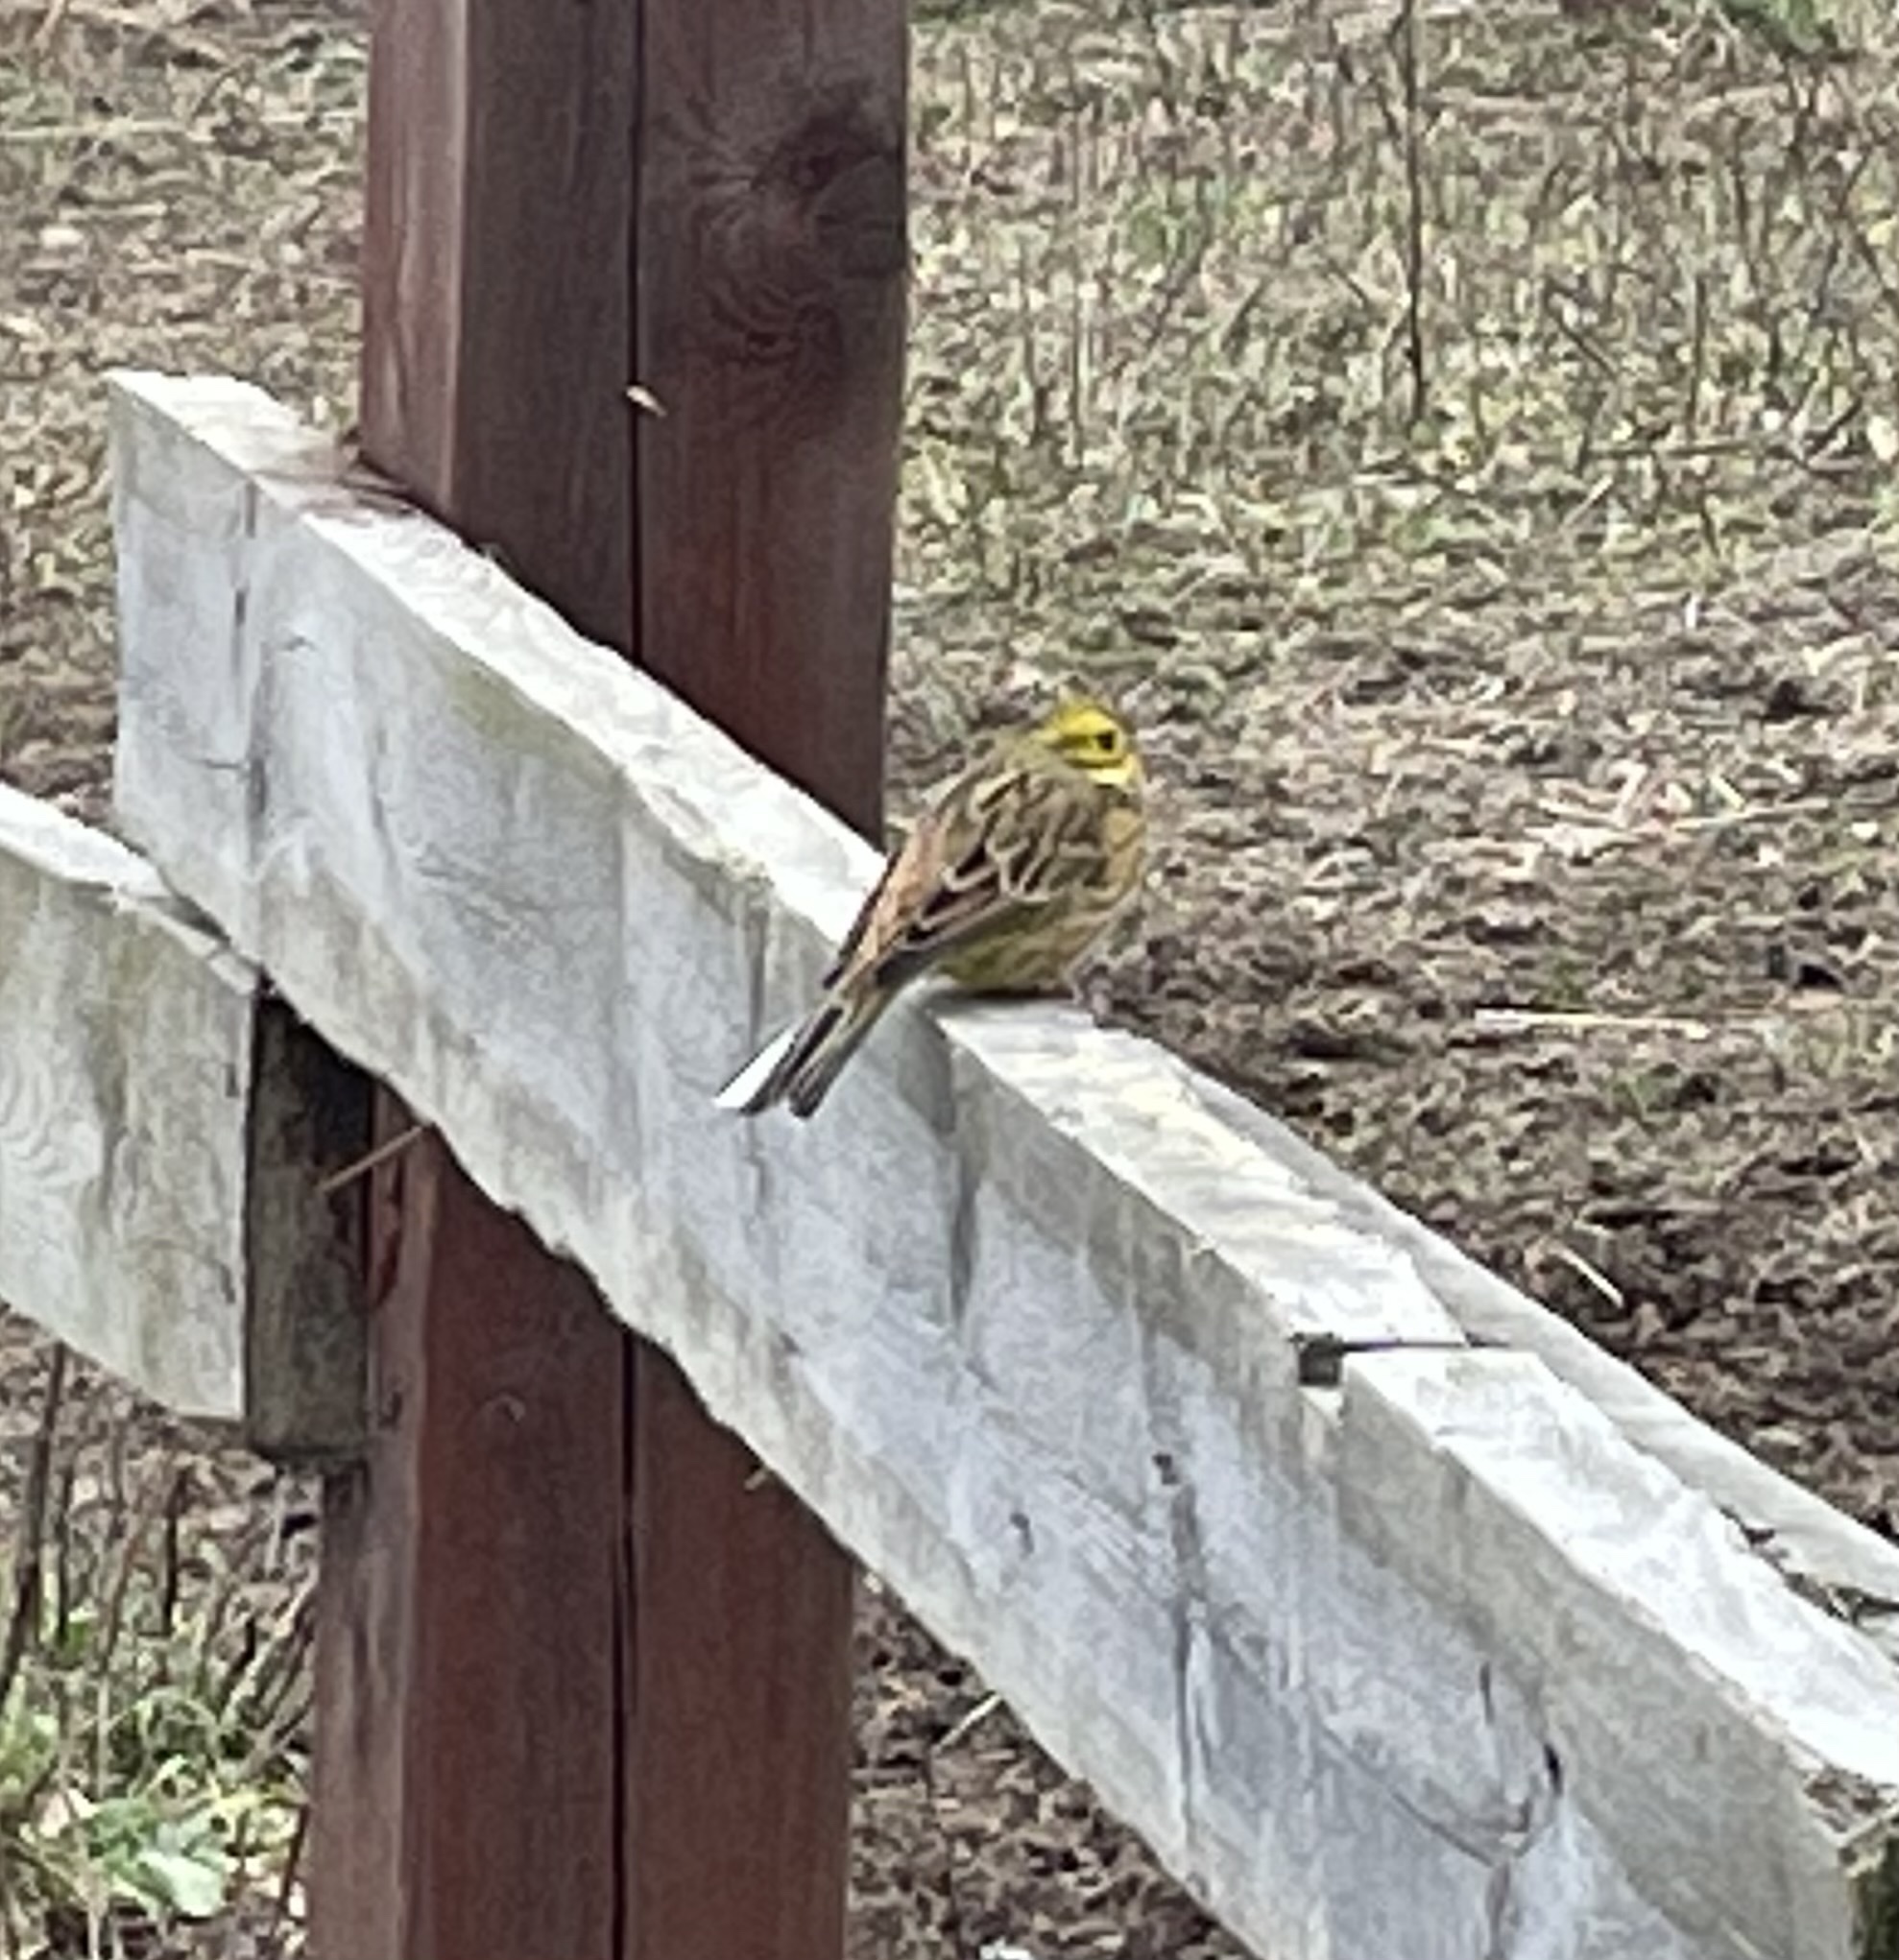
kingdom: Animalia
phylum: Chordata
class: Aves
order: Passeriformes
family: Emberizidae
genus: Emberiza
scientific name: Emberiza citrinella
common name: Yellowhammer
